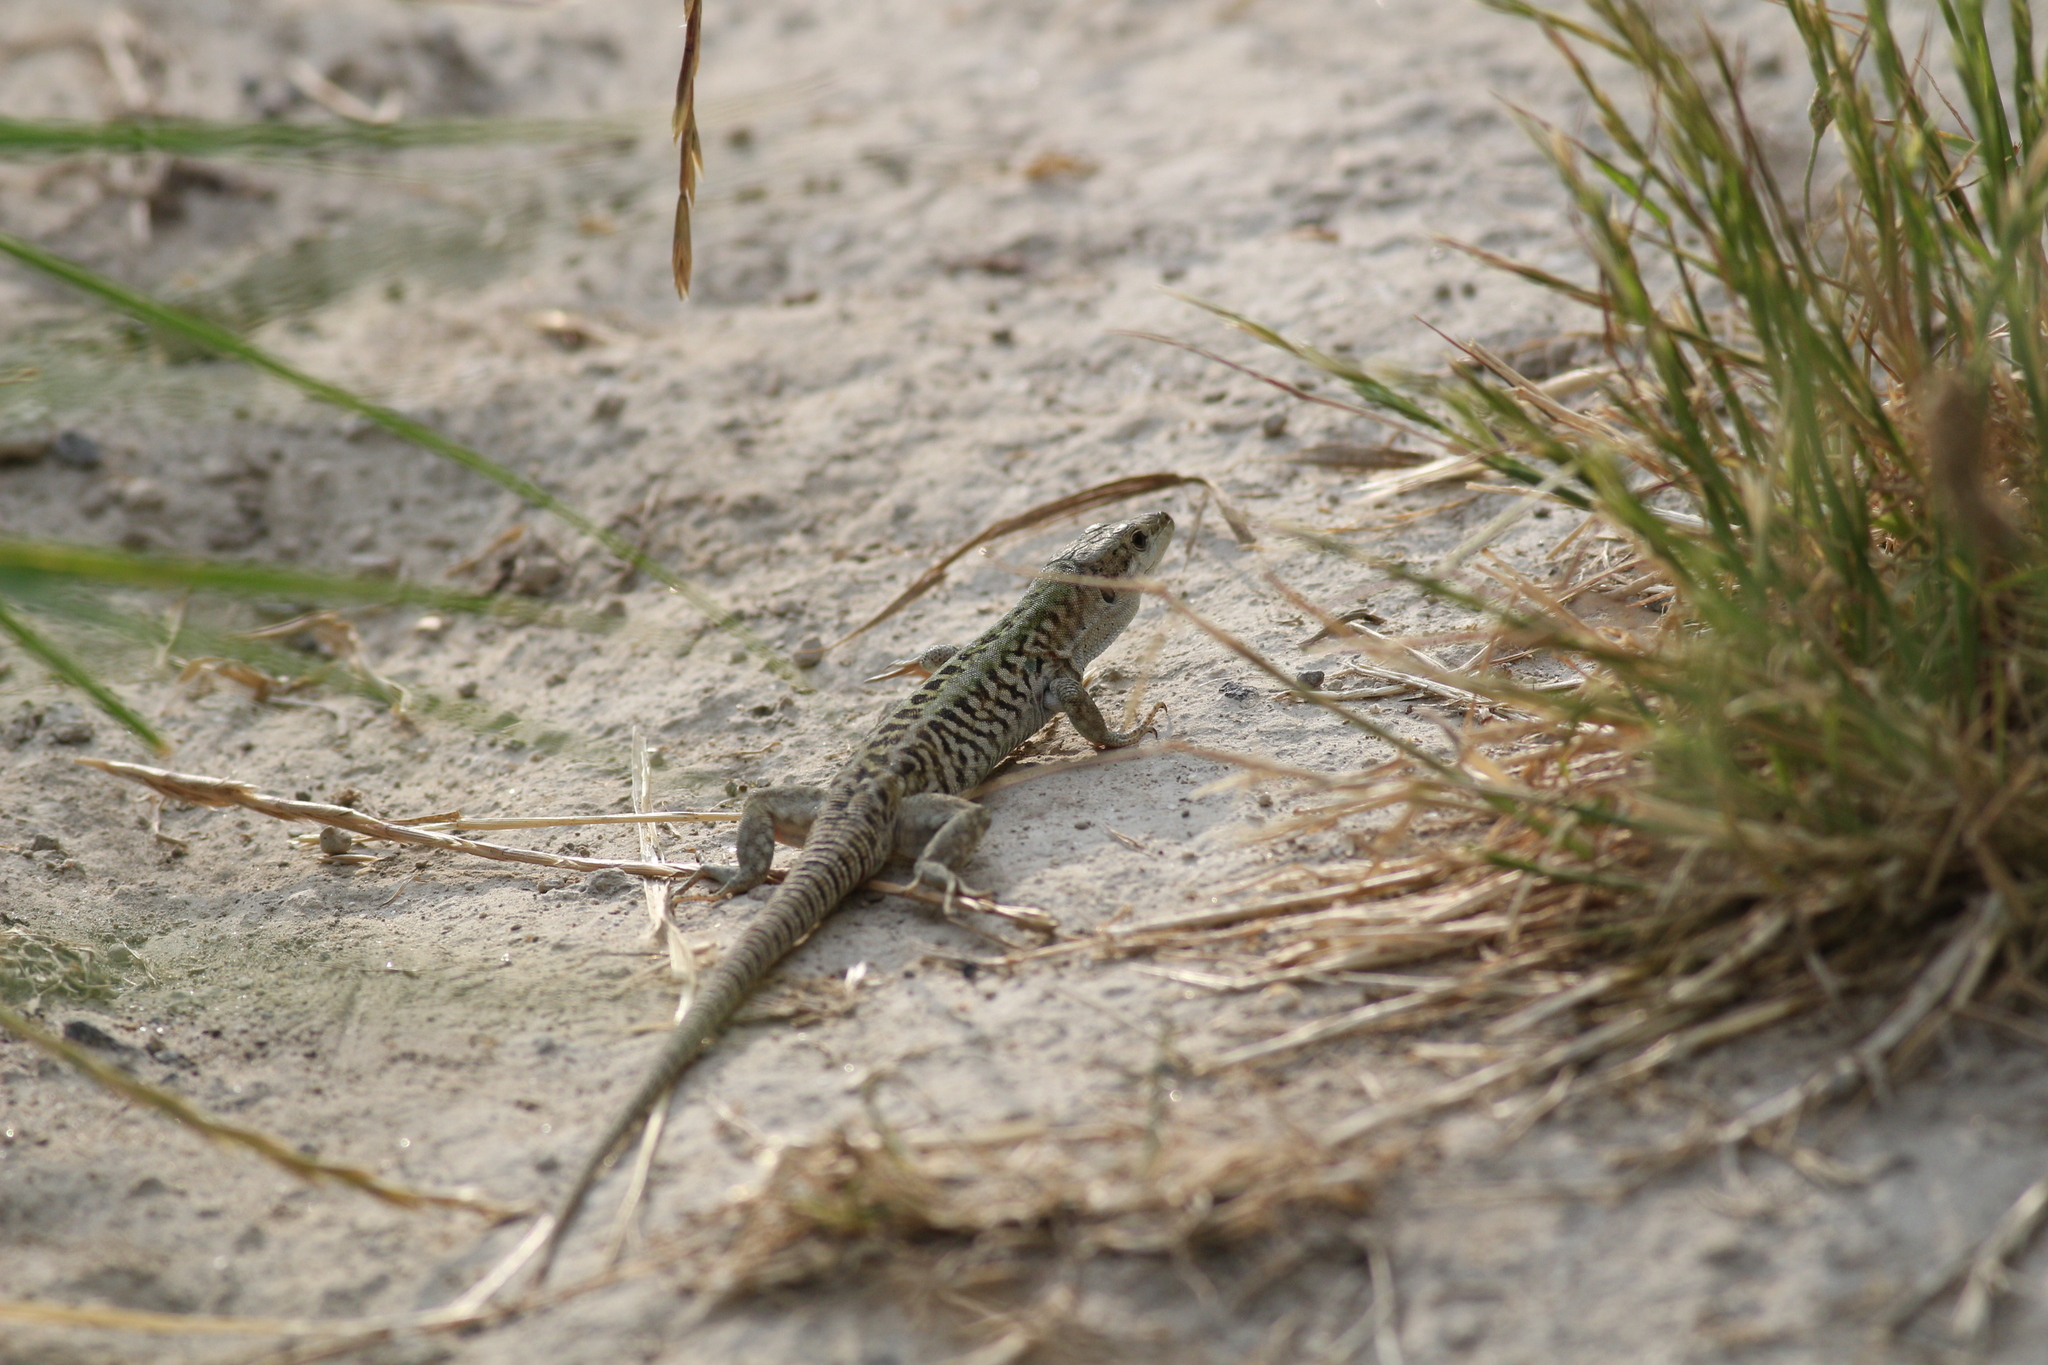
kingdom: Animalia
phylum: Chordata
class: Squamata
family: Lacertidae
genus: Podarcis
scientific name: Podarcis siculus
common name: Italian wall lizard
